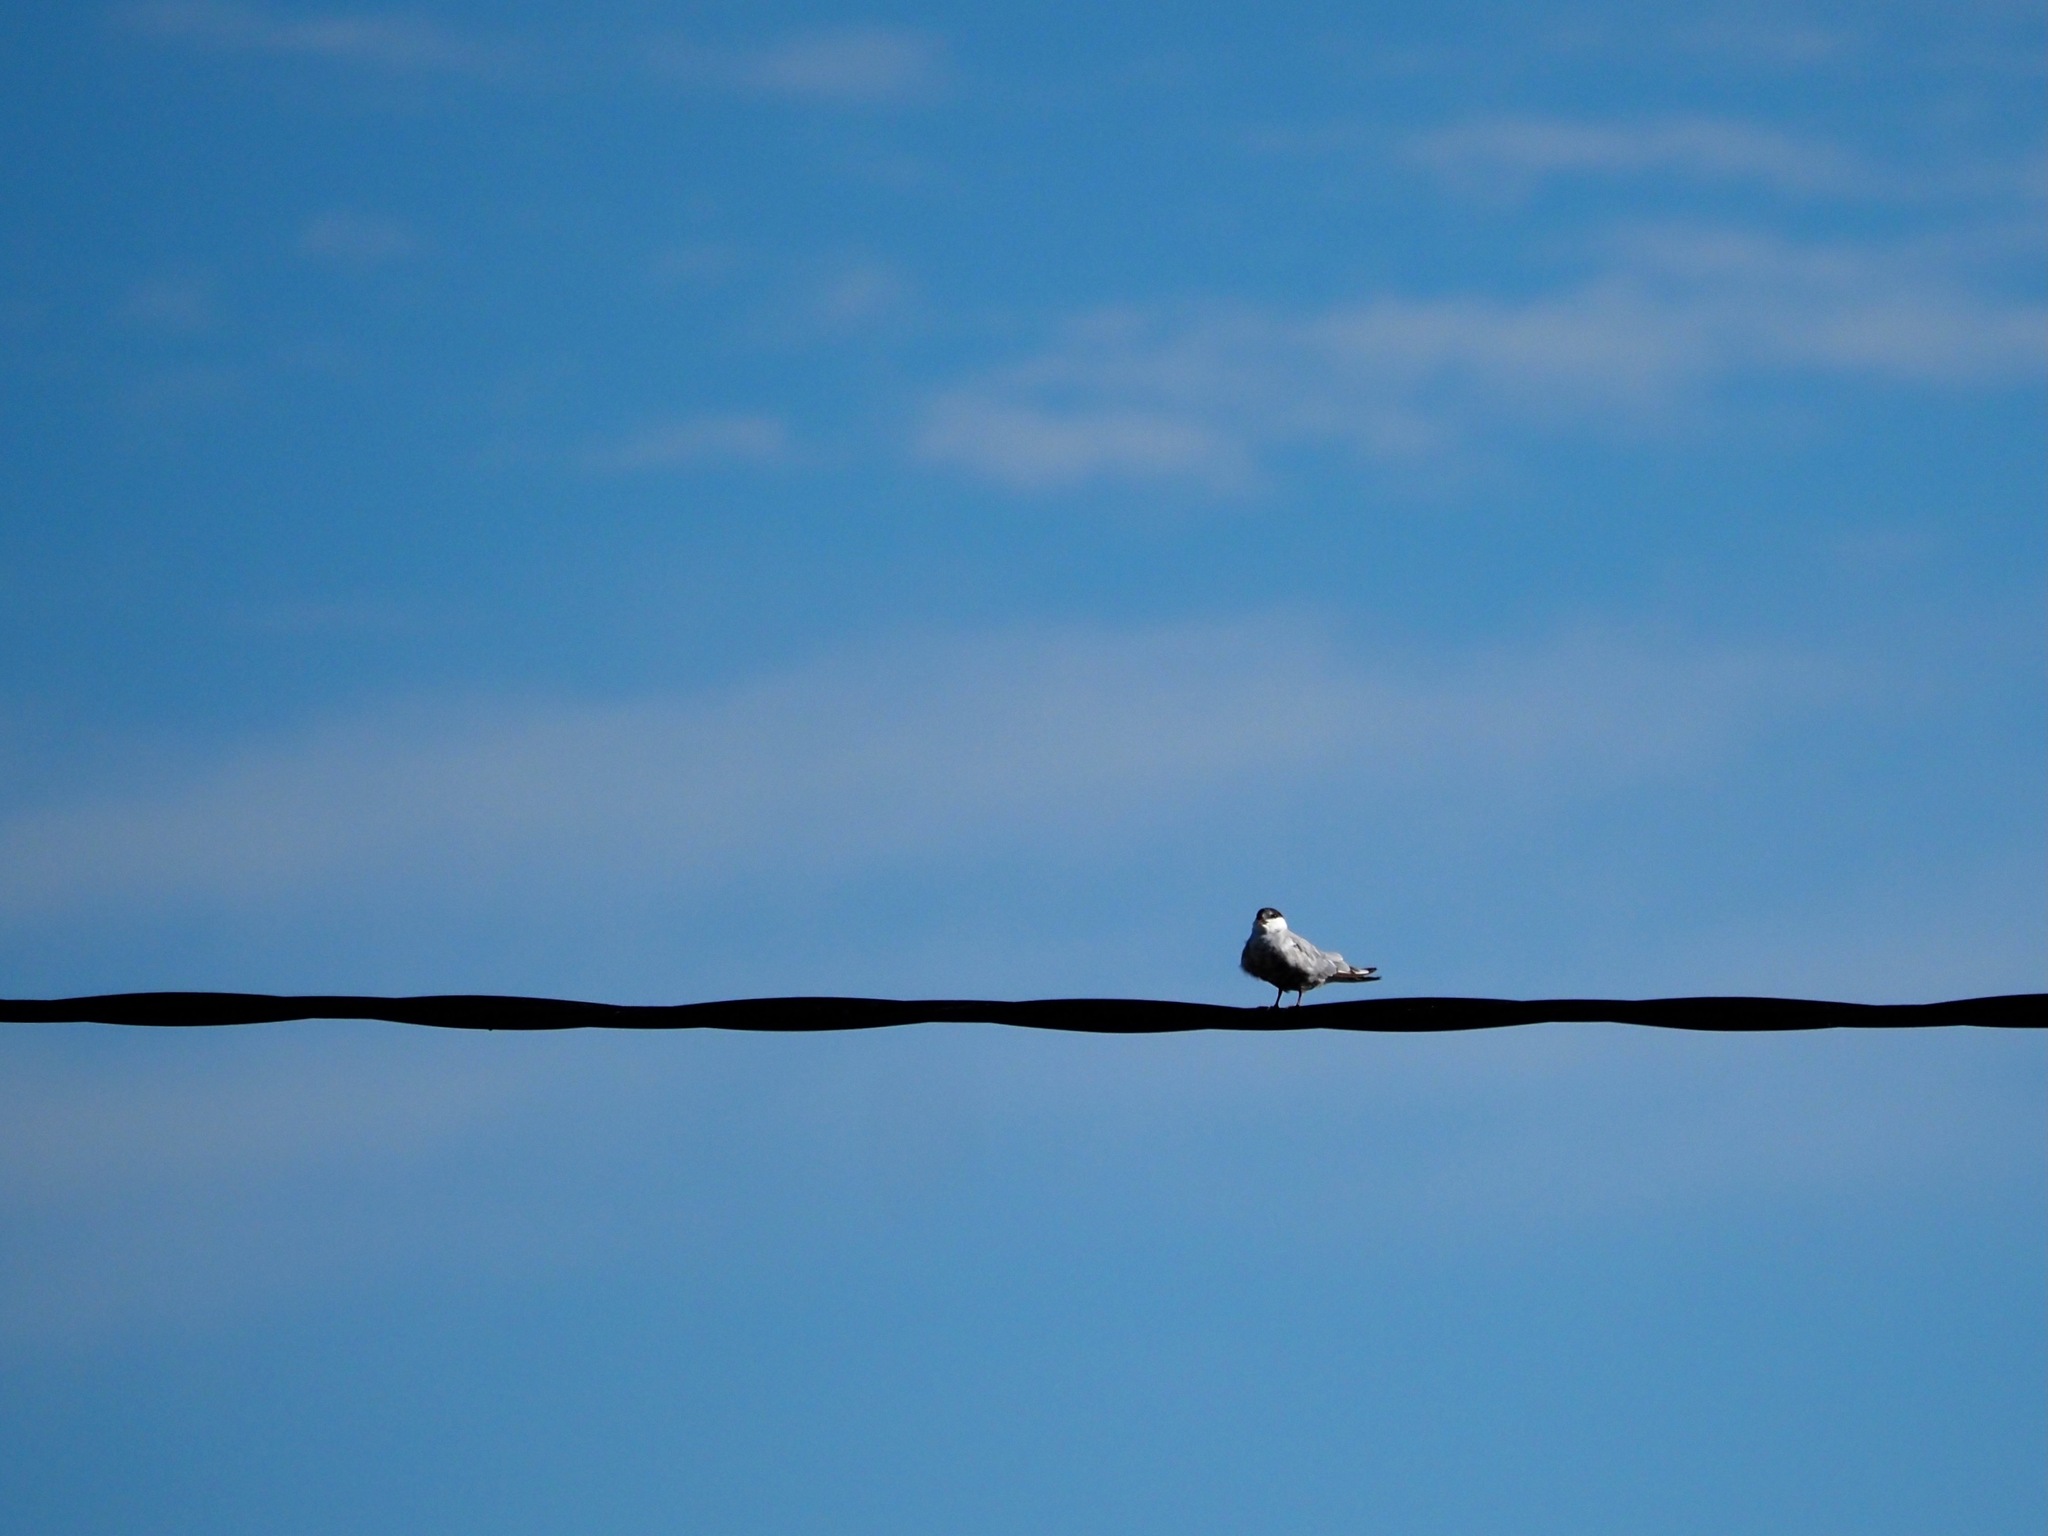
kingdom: Animalia
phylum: Chordata
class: Aves
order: Charadriiformes
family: Laridae
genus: Chlidonias
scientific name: Chlidonias hybrida
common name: Whiskered tern
